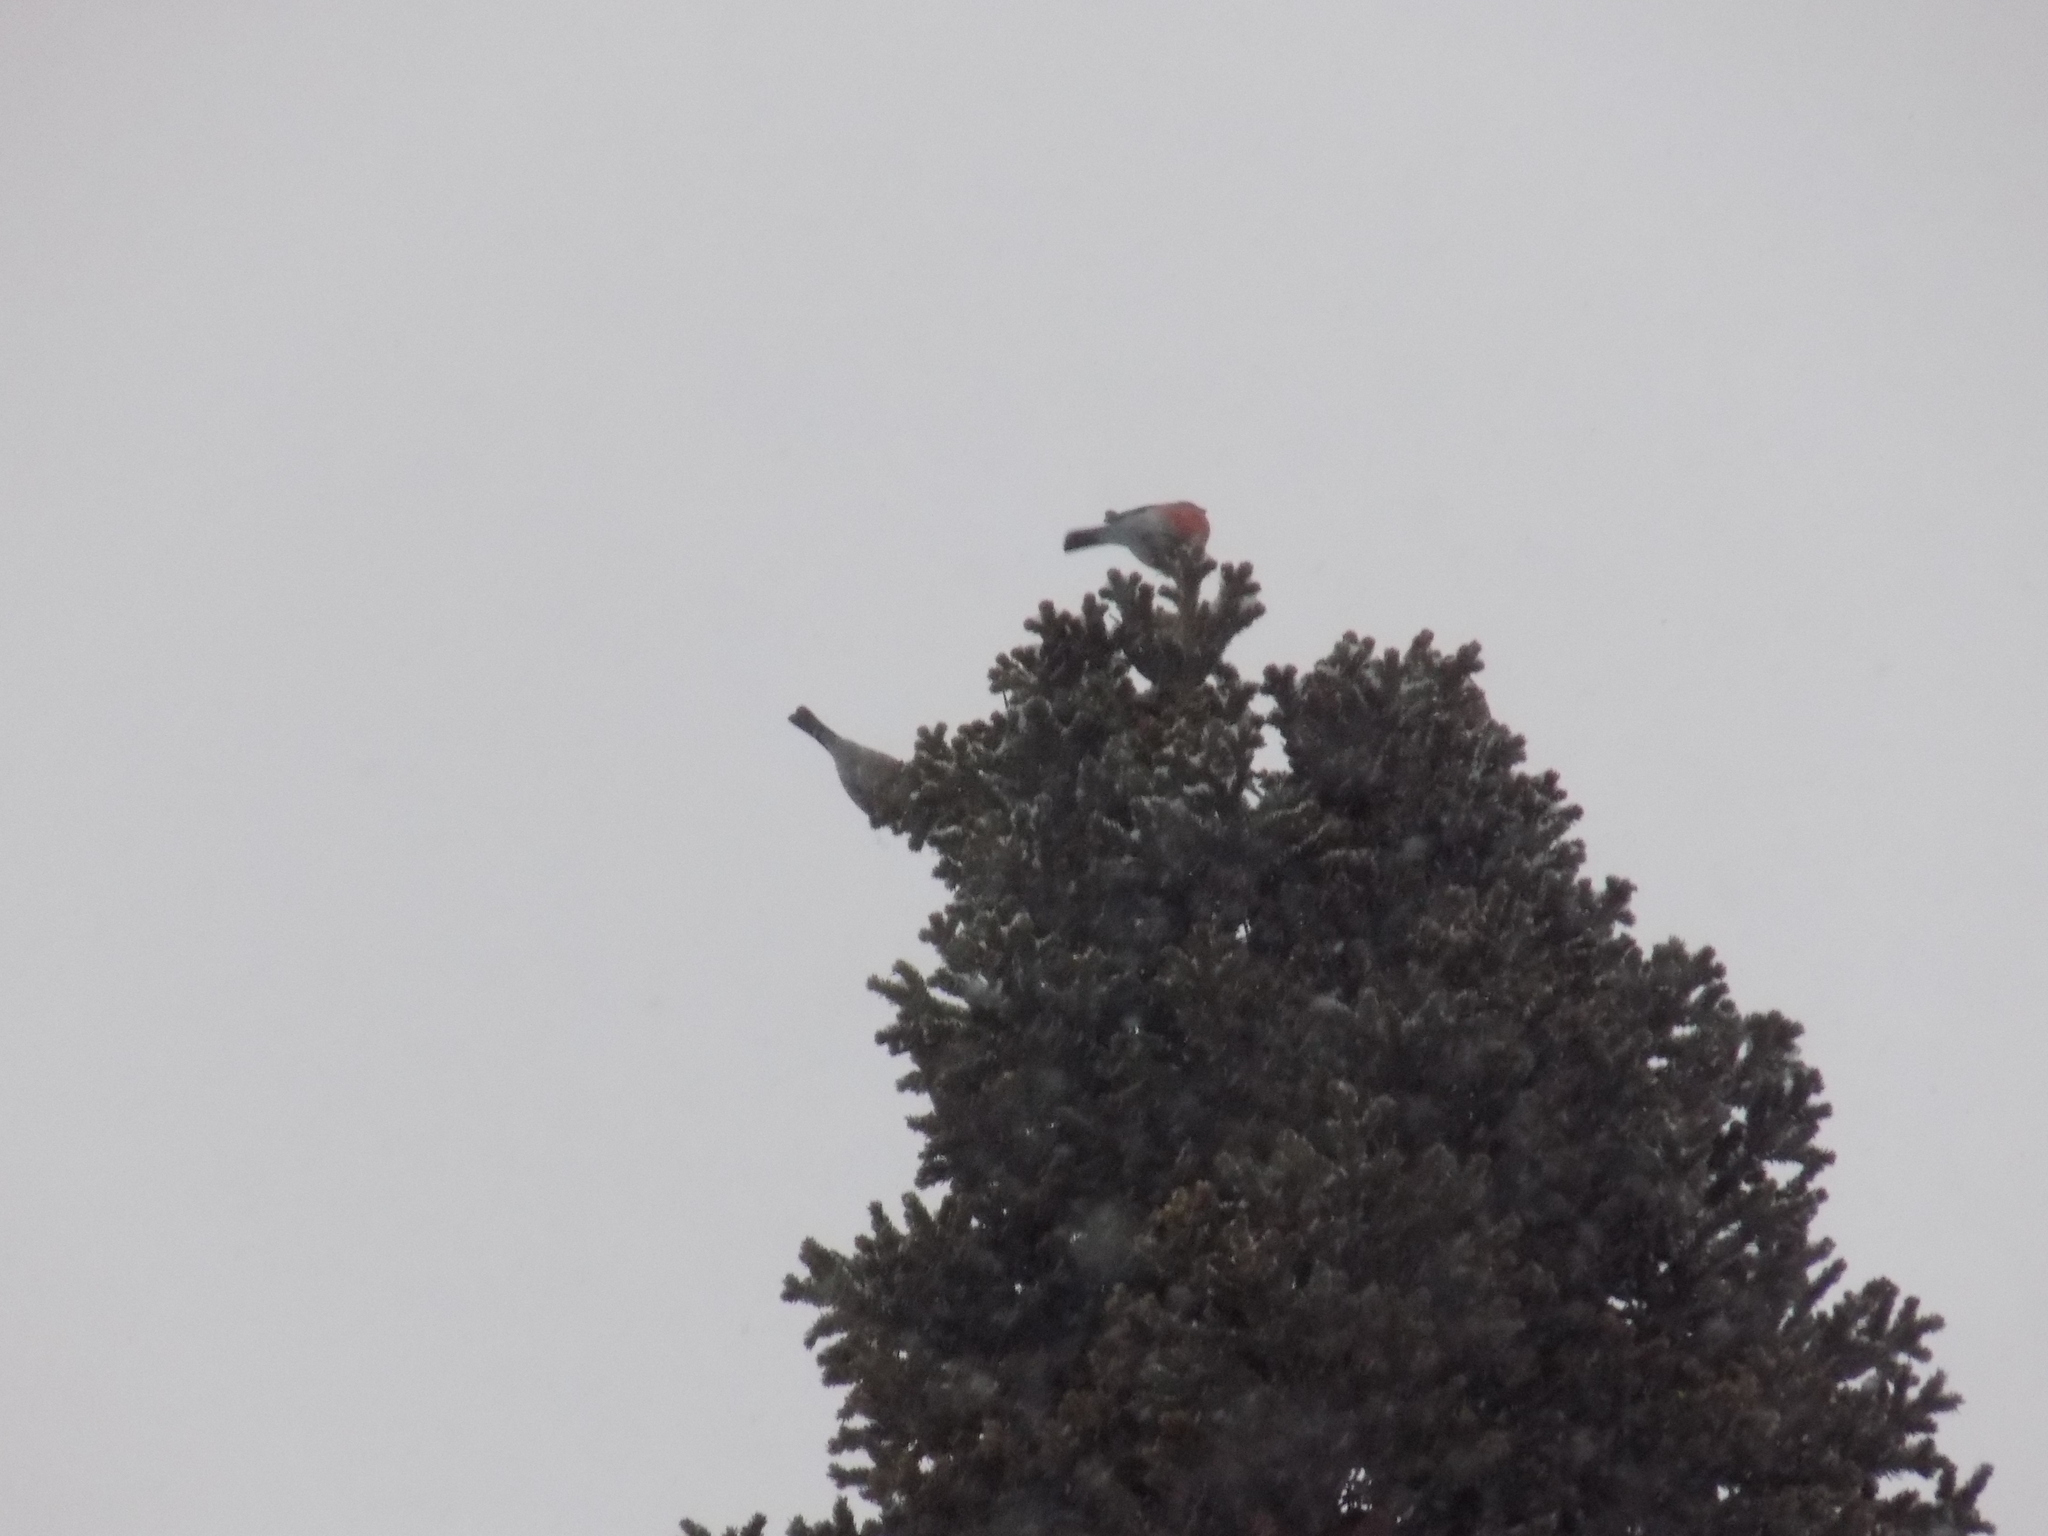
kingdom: Animalia
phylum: Chordata
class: Aves
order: Passeriformes
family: Fringillidae
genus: Pyrrhula
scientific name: Pyrrhula pyrrhula
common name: Eurasian bullfinch
